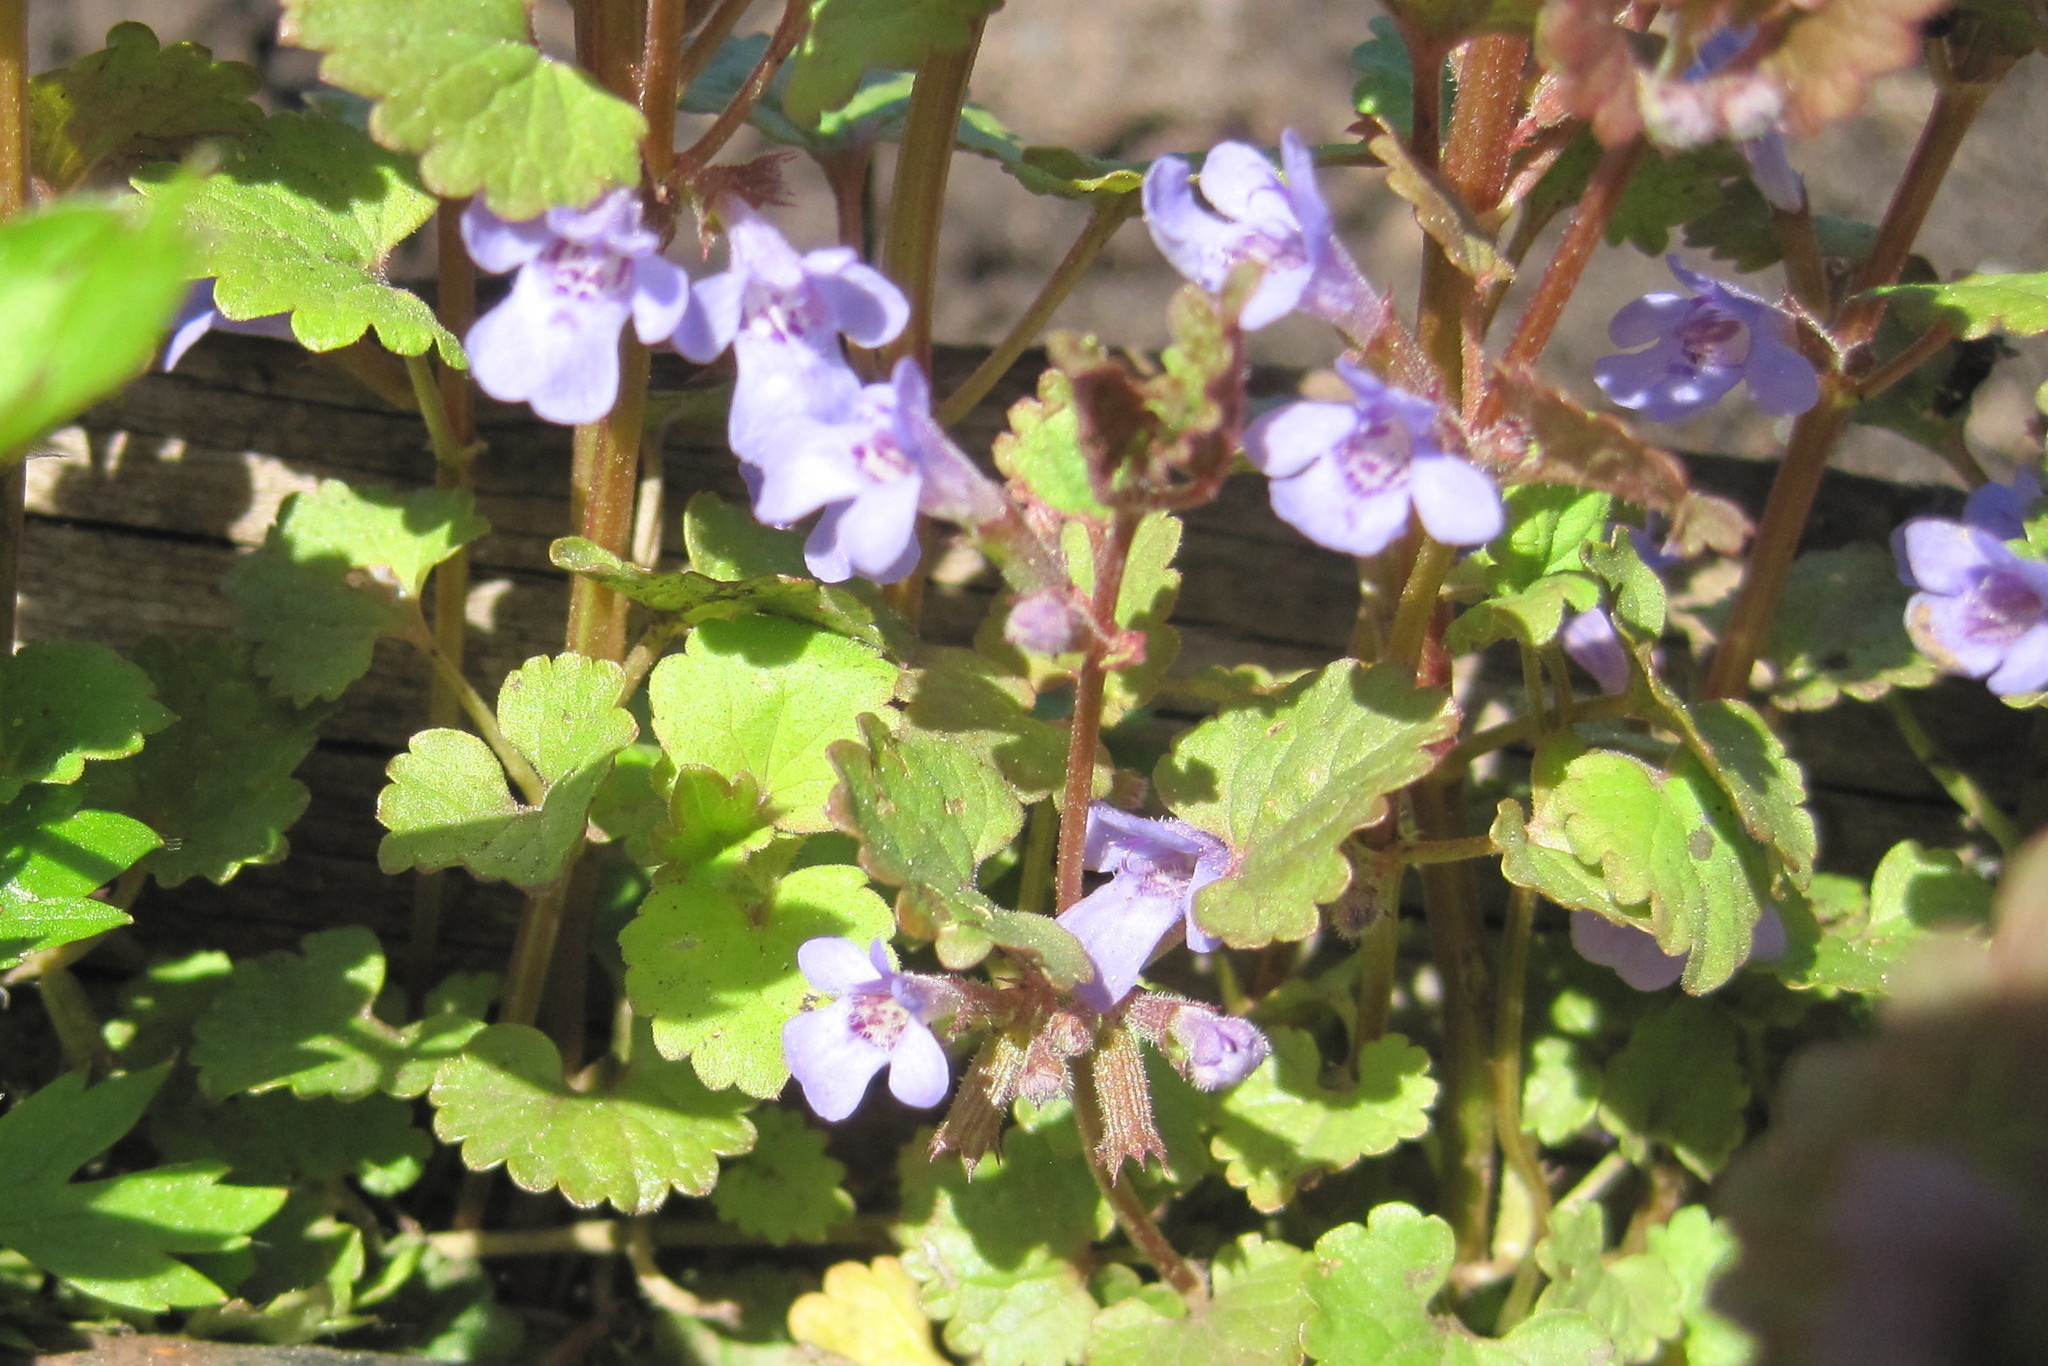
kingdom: Plantae
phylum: Tracheophyta
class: Magnoliopsida
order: Lamiales
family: Lamiaceae
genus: Glechoma
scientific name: Glechoma hederacea
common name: Ground ivy
